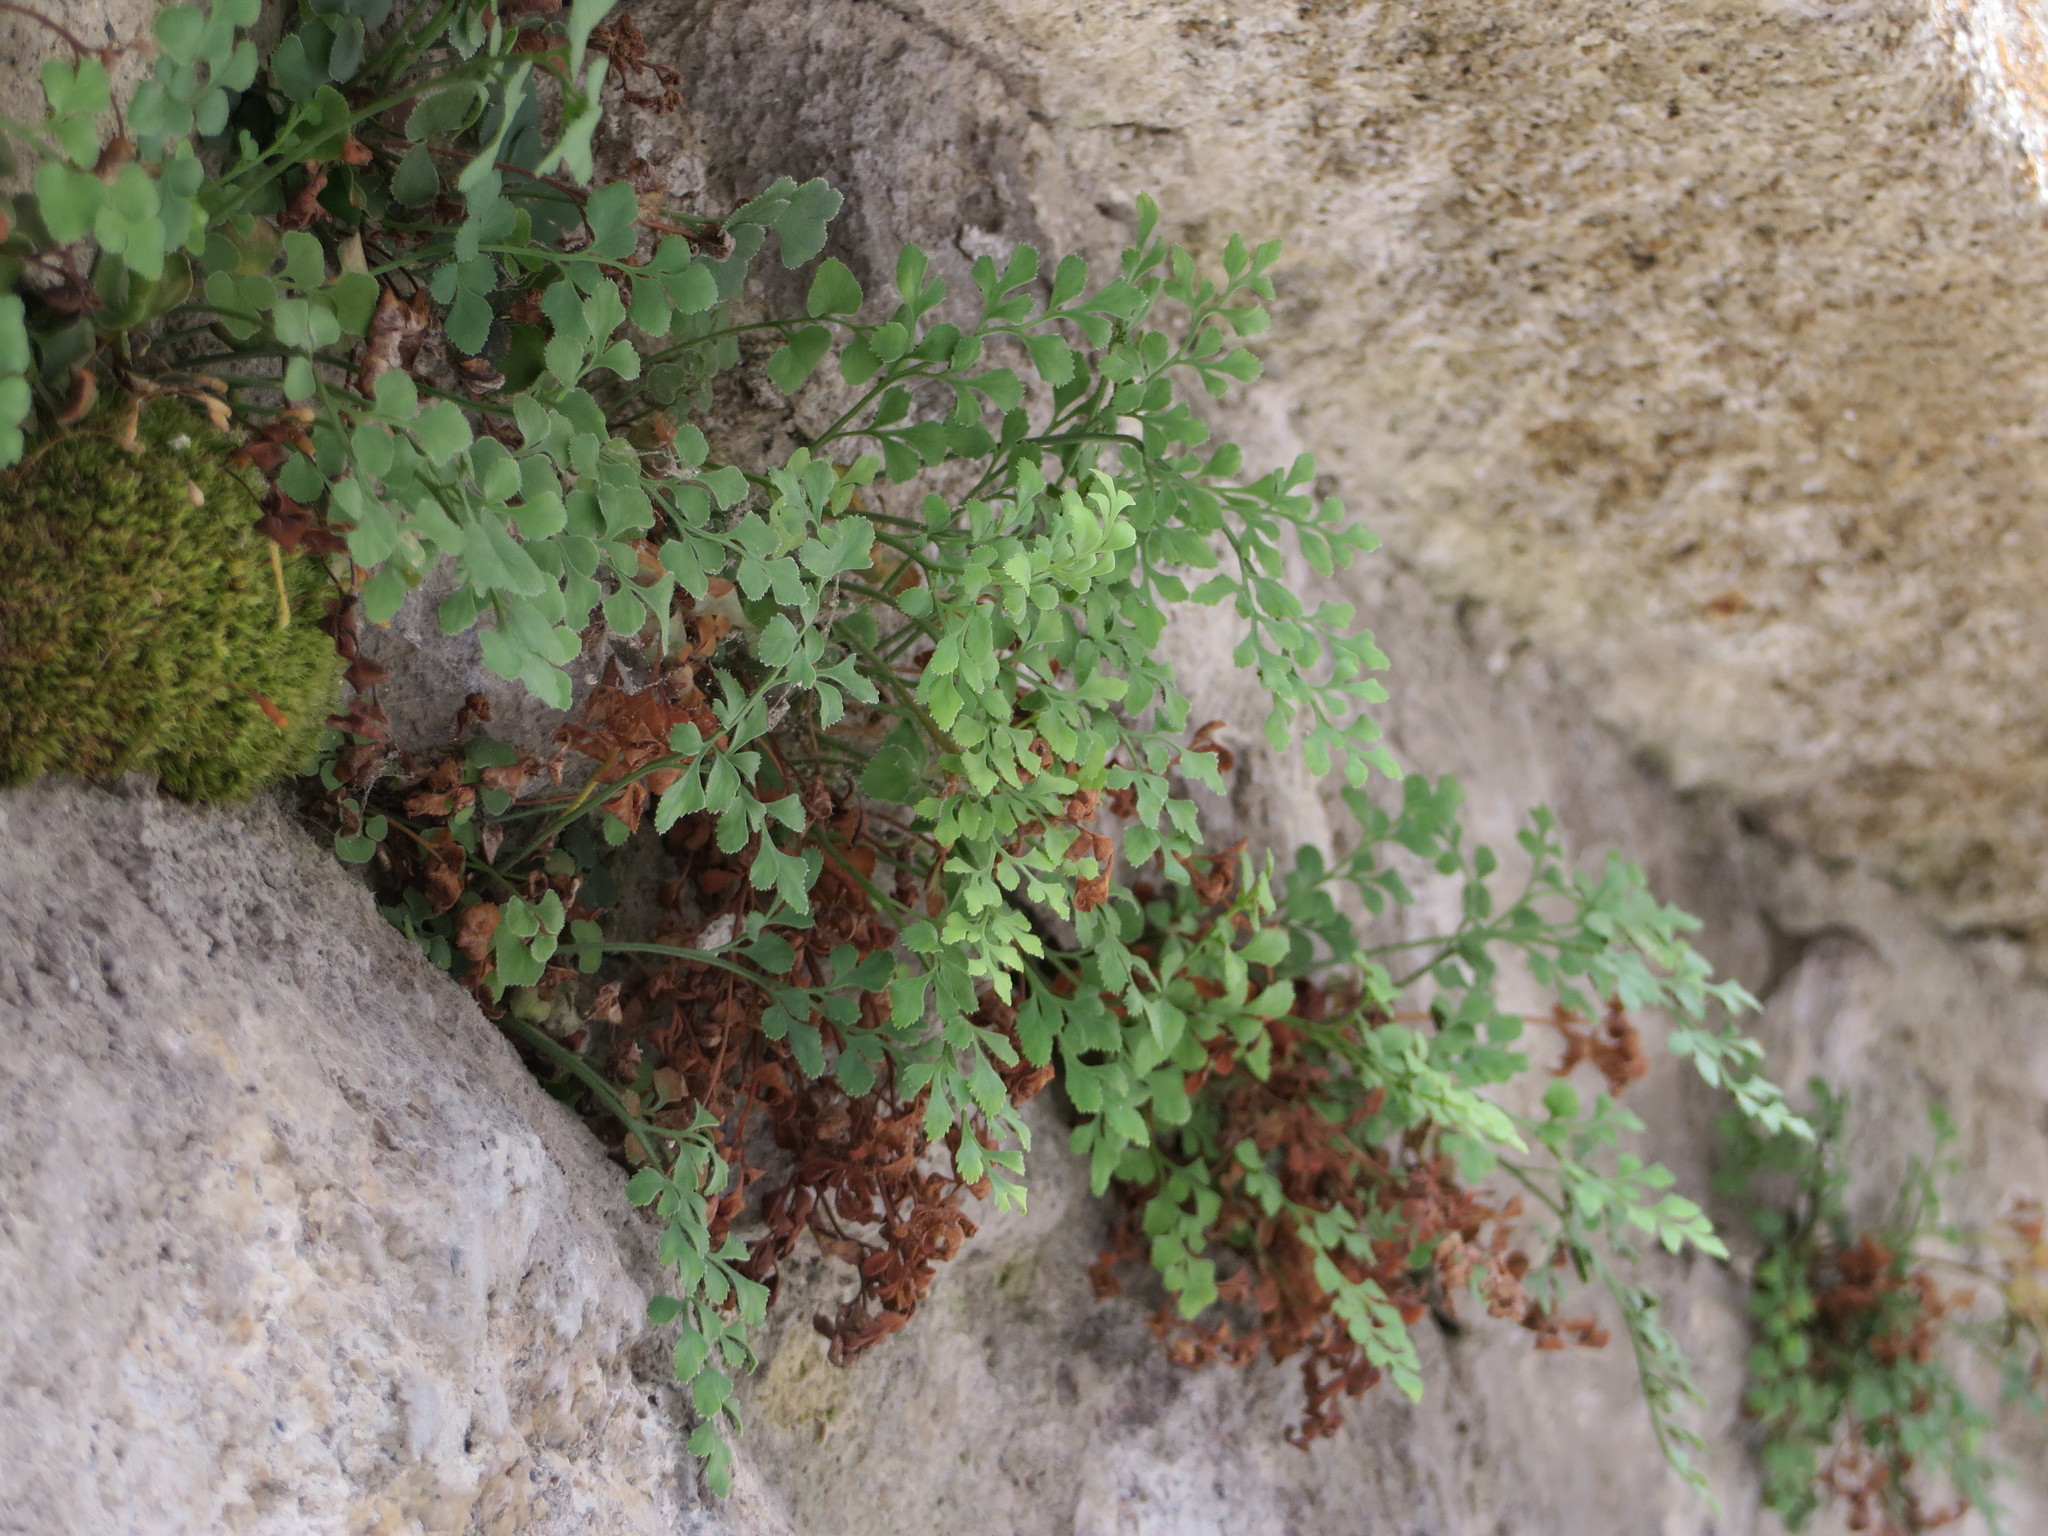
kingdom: Plantae
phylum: Tracheophyta
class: Polypodiopsida
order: Polypodiales
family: Aspleniaceae
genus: Asplenium
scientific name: Asplenium ruta-muraria
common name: Wall-rue
